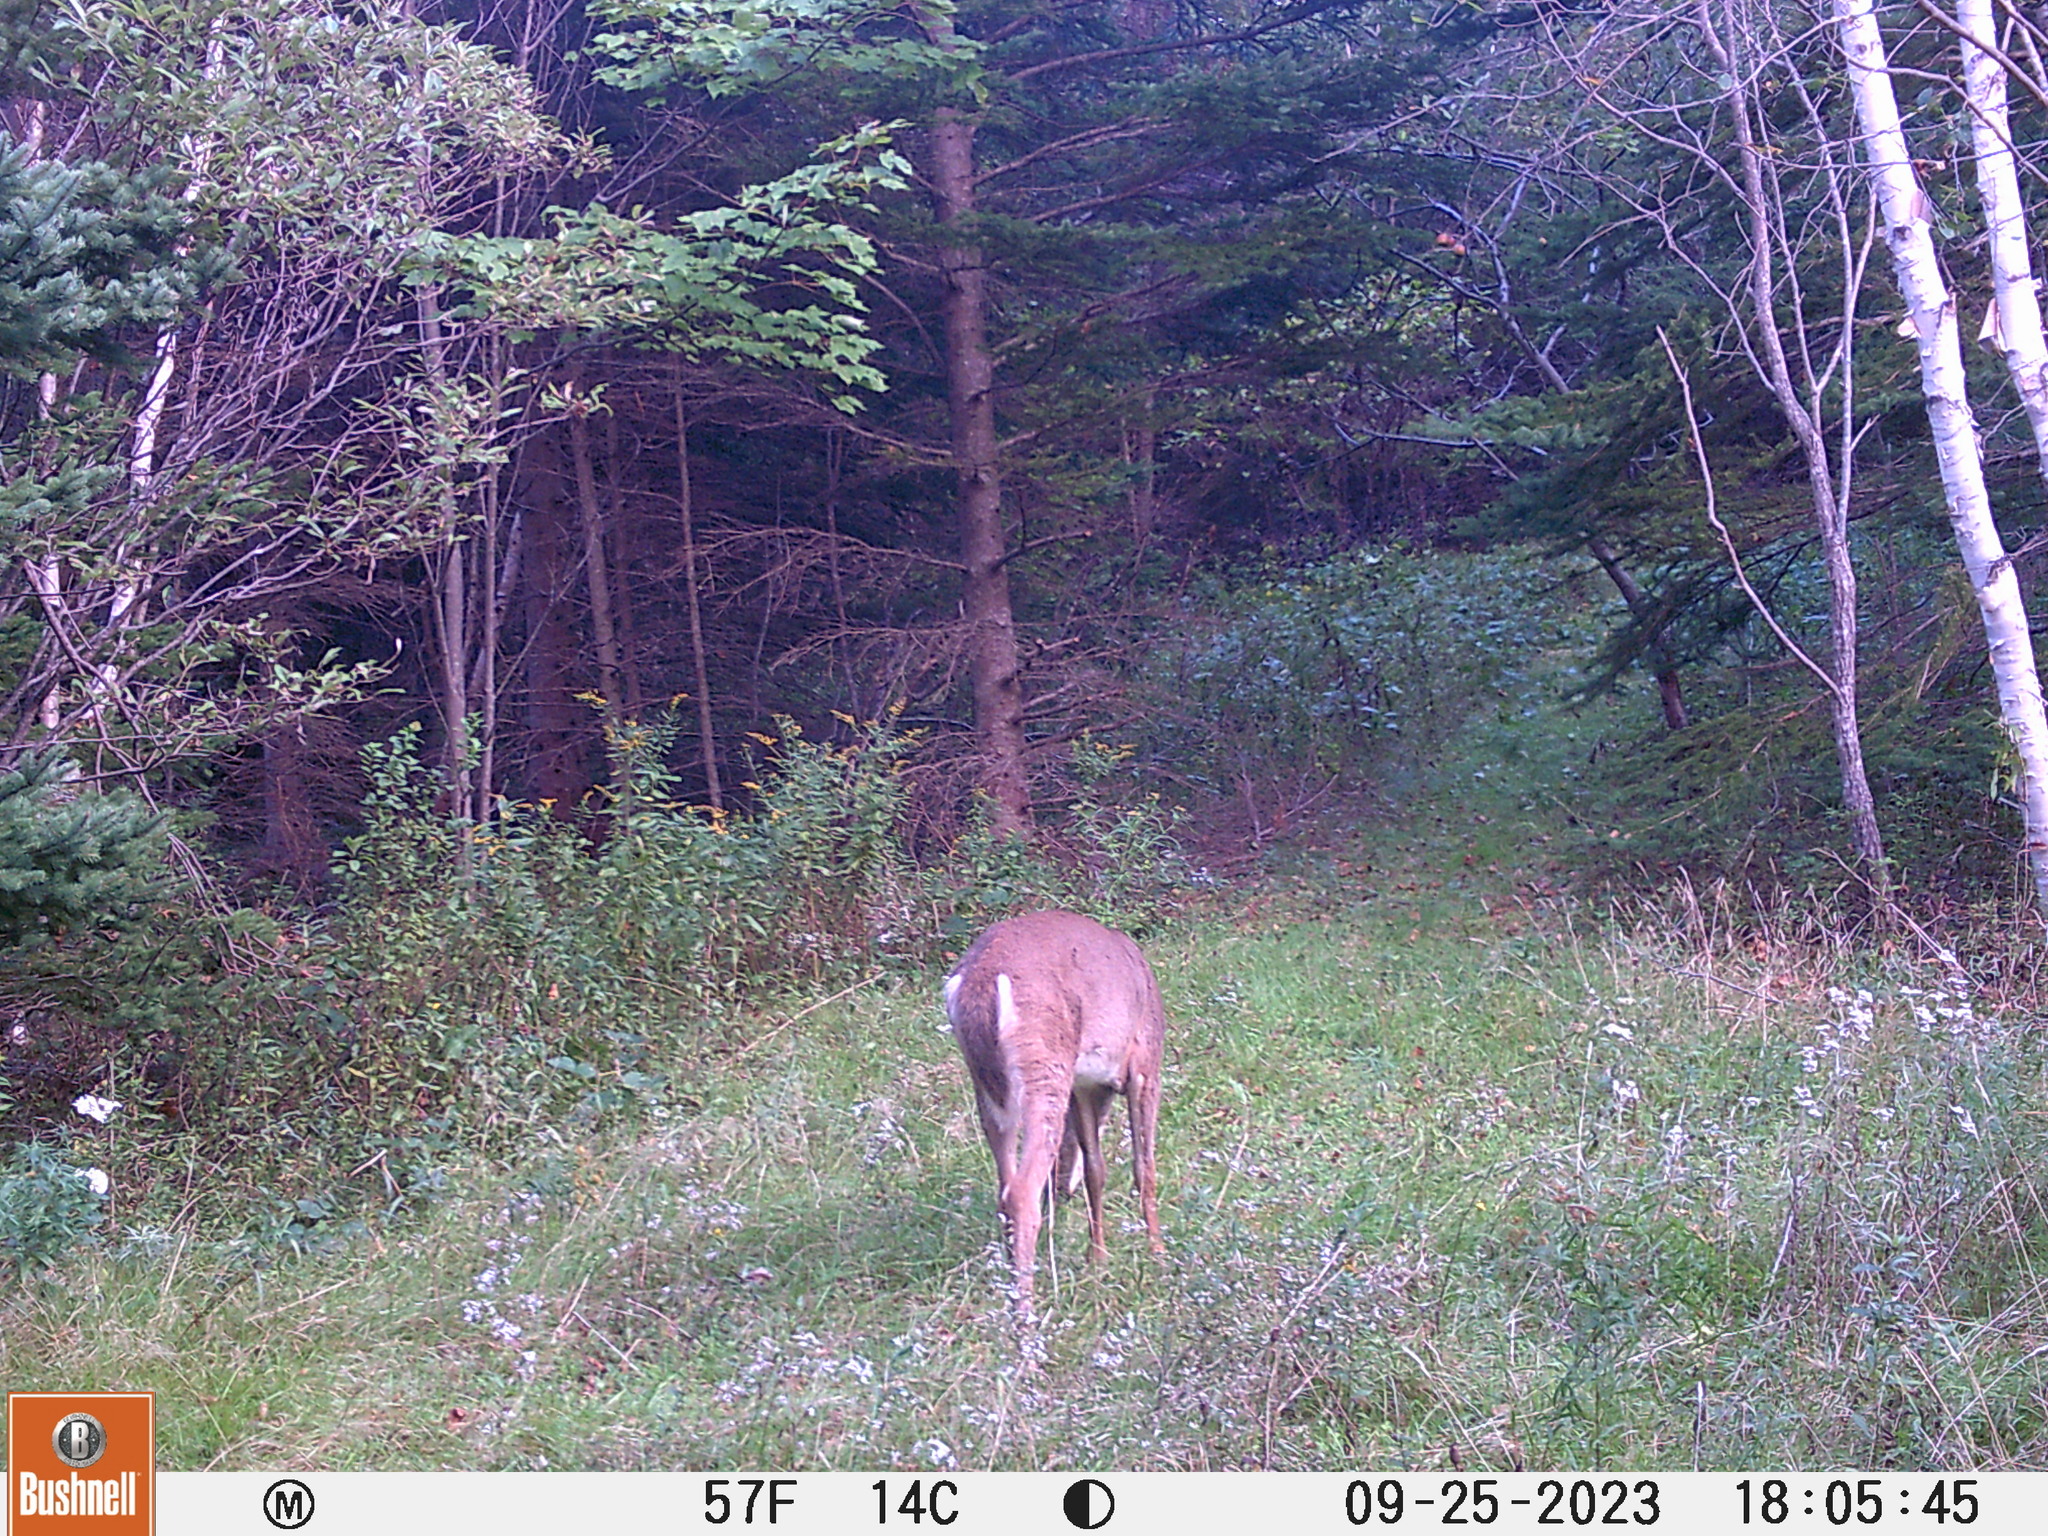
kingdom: Animalia
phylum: Chordata
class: Mammalia
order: Artiodactyla
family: Cervidae
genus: Odocoileus
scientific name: Odocoileus virginianus
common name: White-tailed deer
